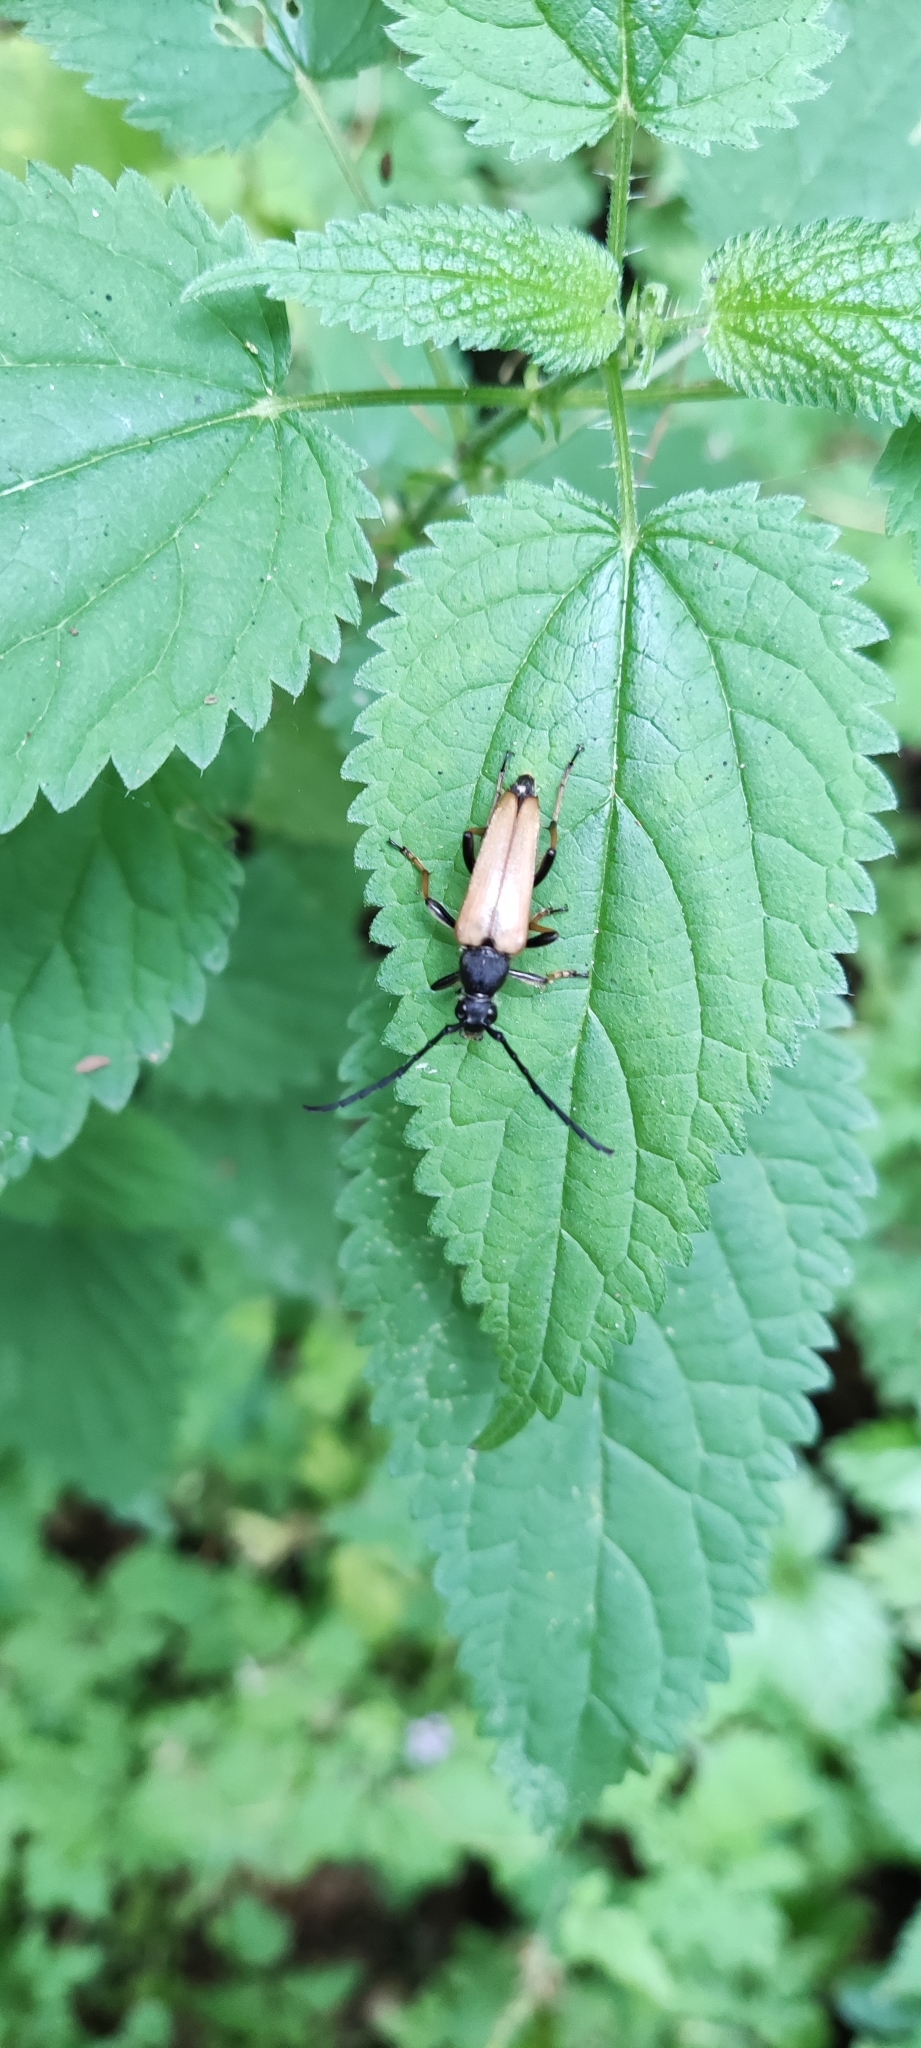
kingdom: Animalia
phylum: Arthropoda
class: Insecta
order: Coleoptera
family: Cerambycidae
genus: Stictoleptura
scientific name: Stictoleptura rubra
